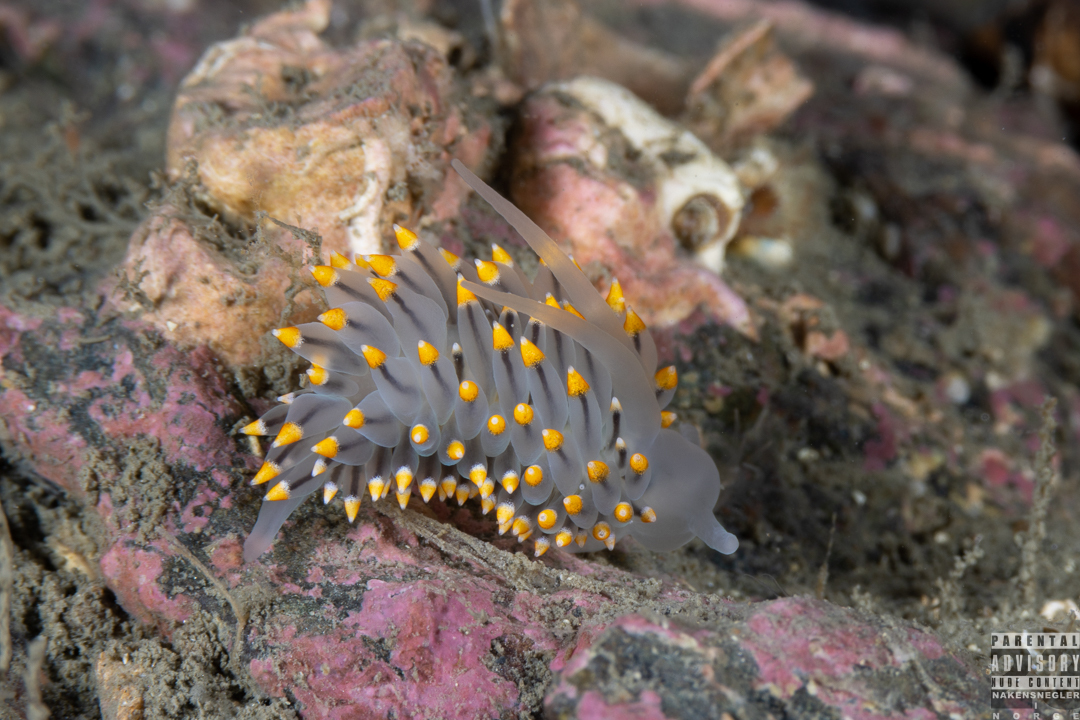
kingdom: Animalia
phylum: Mollusca
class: Gastropoda
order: Nudibranchia
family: Eubranchidae
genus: Eubranchus
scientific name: Eubranchus tricolor
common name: Painted balloon aeolis
